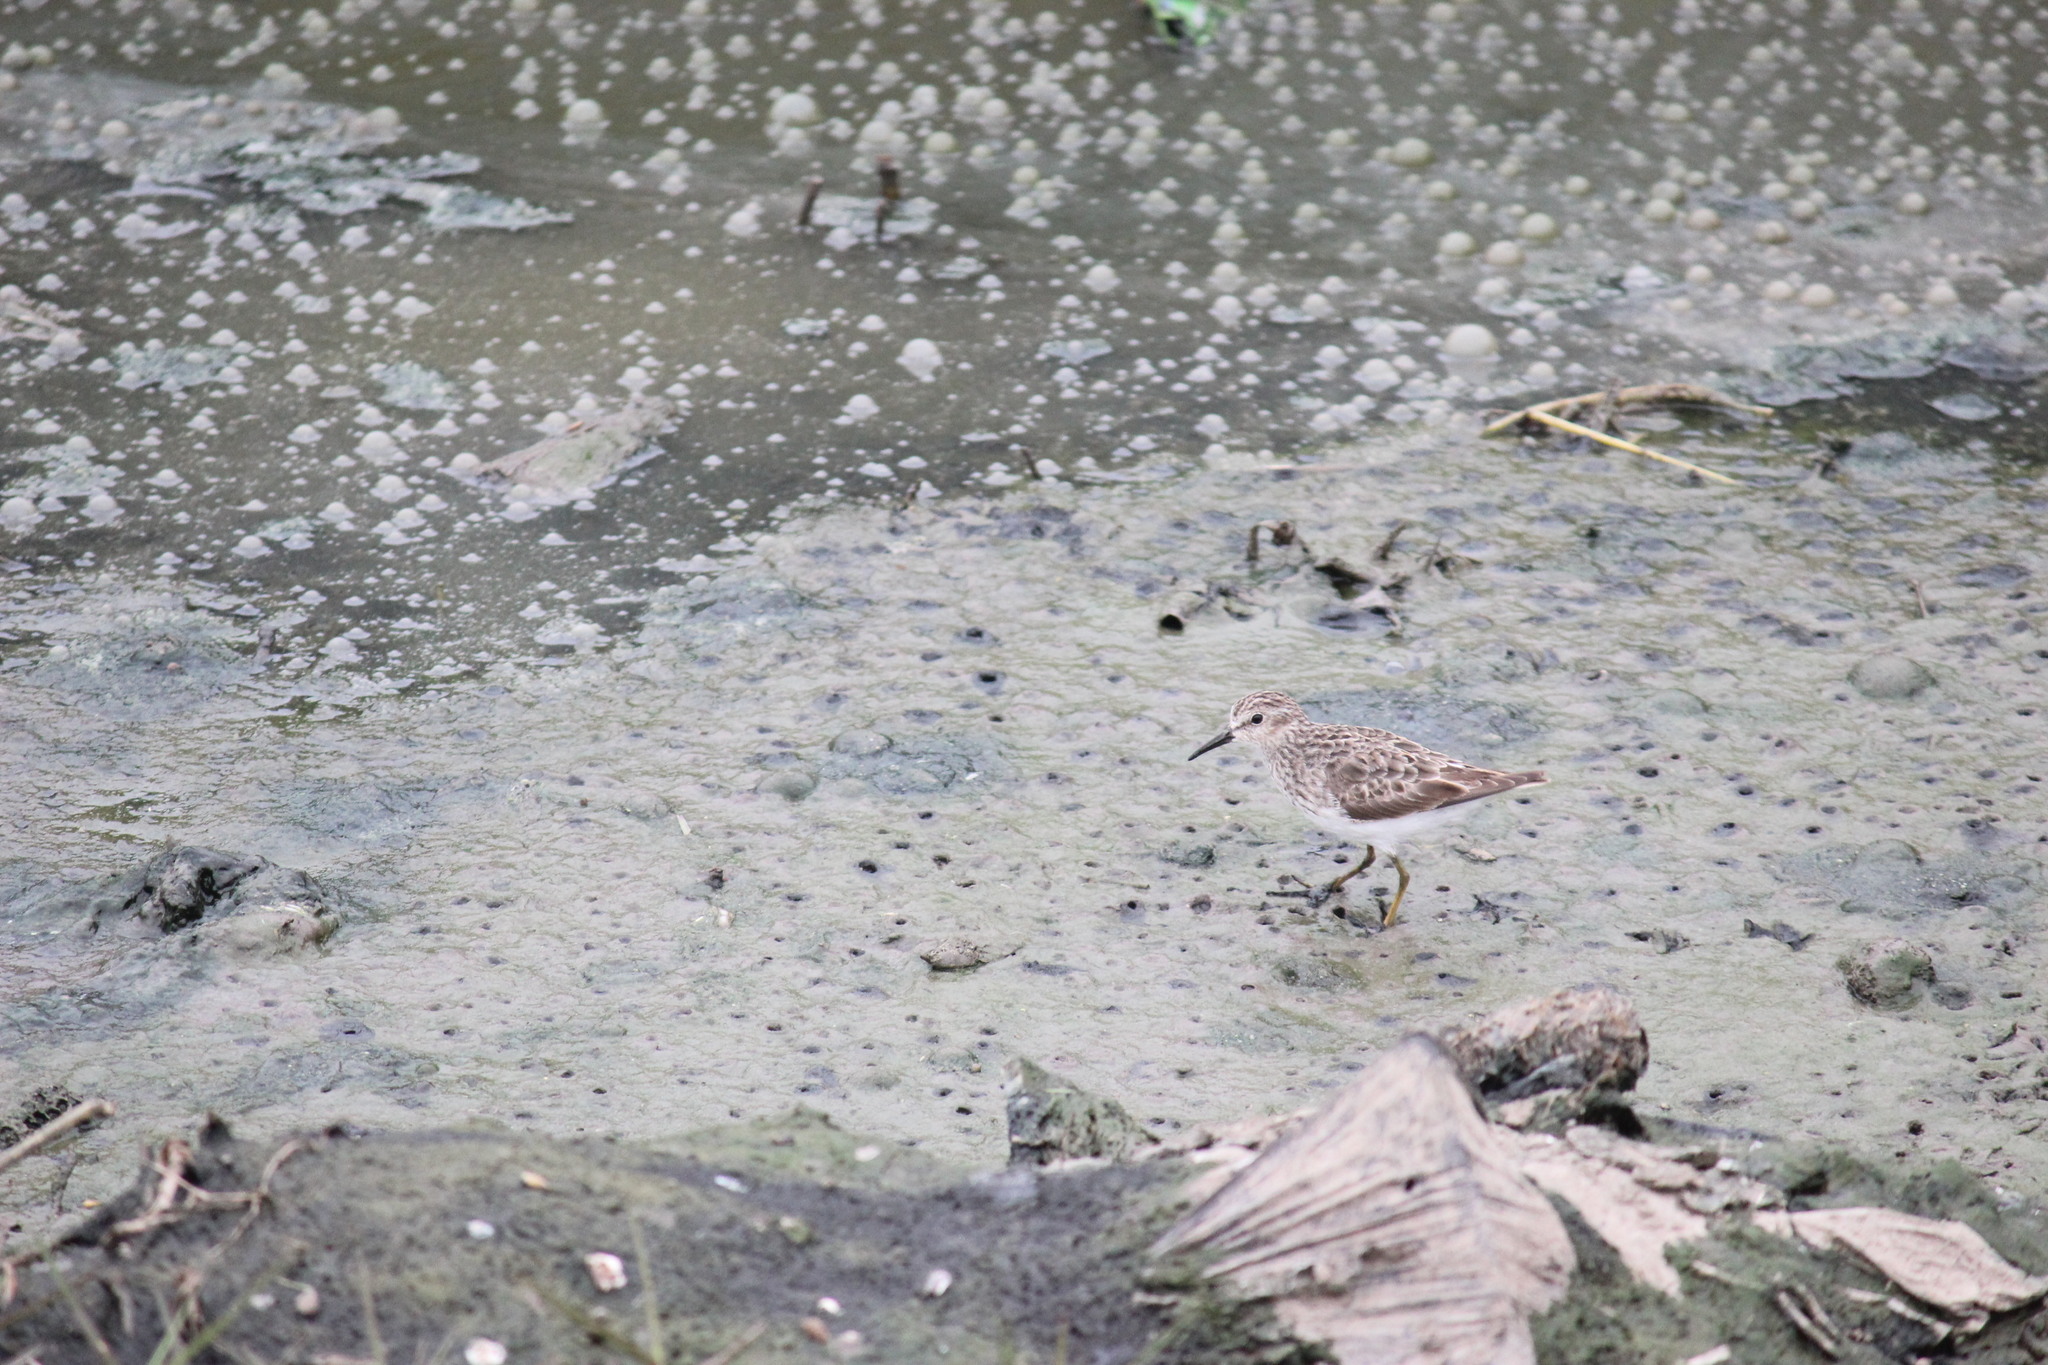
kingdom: Animalia
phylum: Chordata
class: Aves
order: Charadriiformes
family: Scolopacidae
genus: Calidris
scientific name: Calidris minutilla
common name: Least sandpiper
